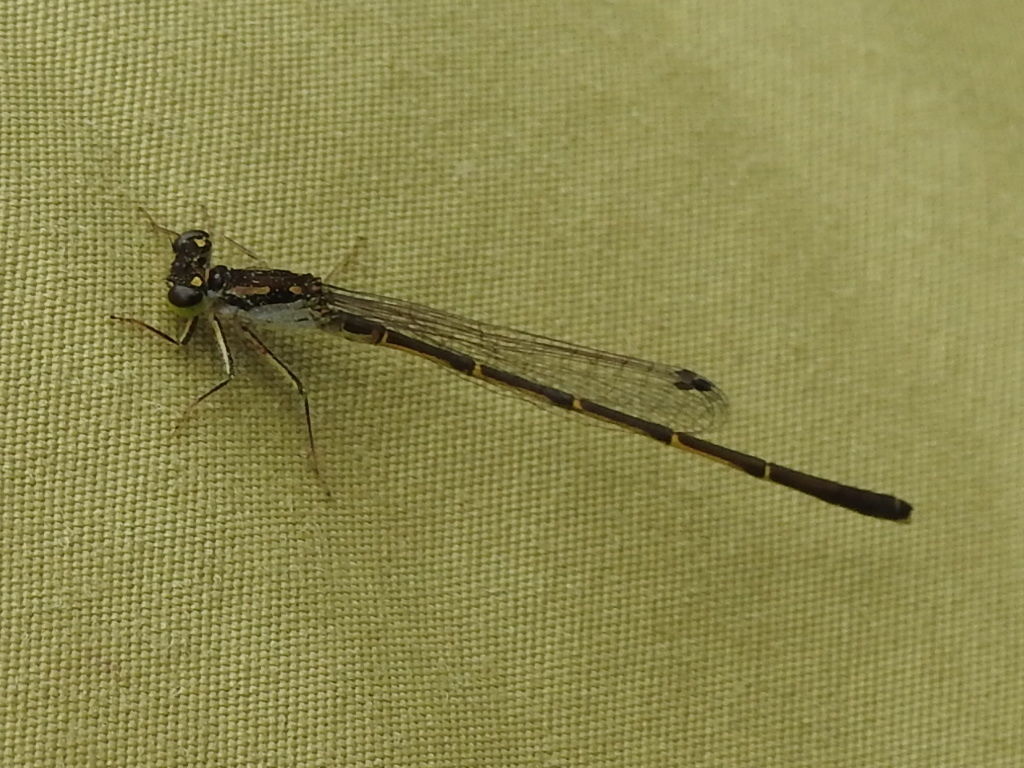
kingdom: Animalia
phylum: Arthropoda
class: Insecta
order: Odonata
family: Coenagrionidae
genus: Ischnura
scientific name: Ischnura posita
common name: Fragile forktail
